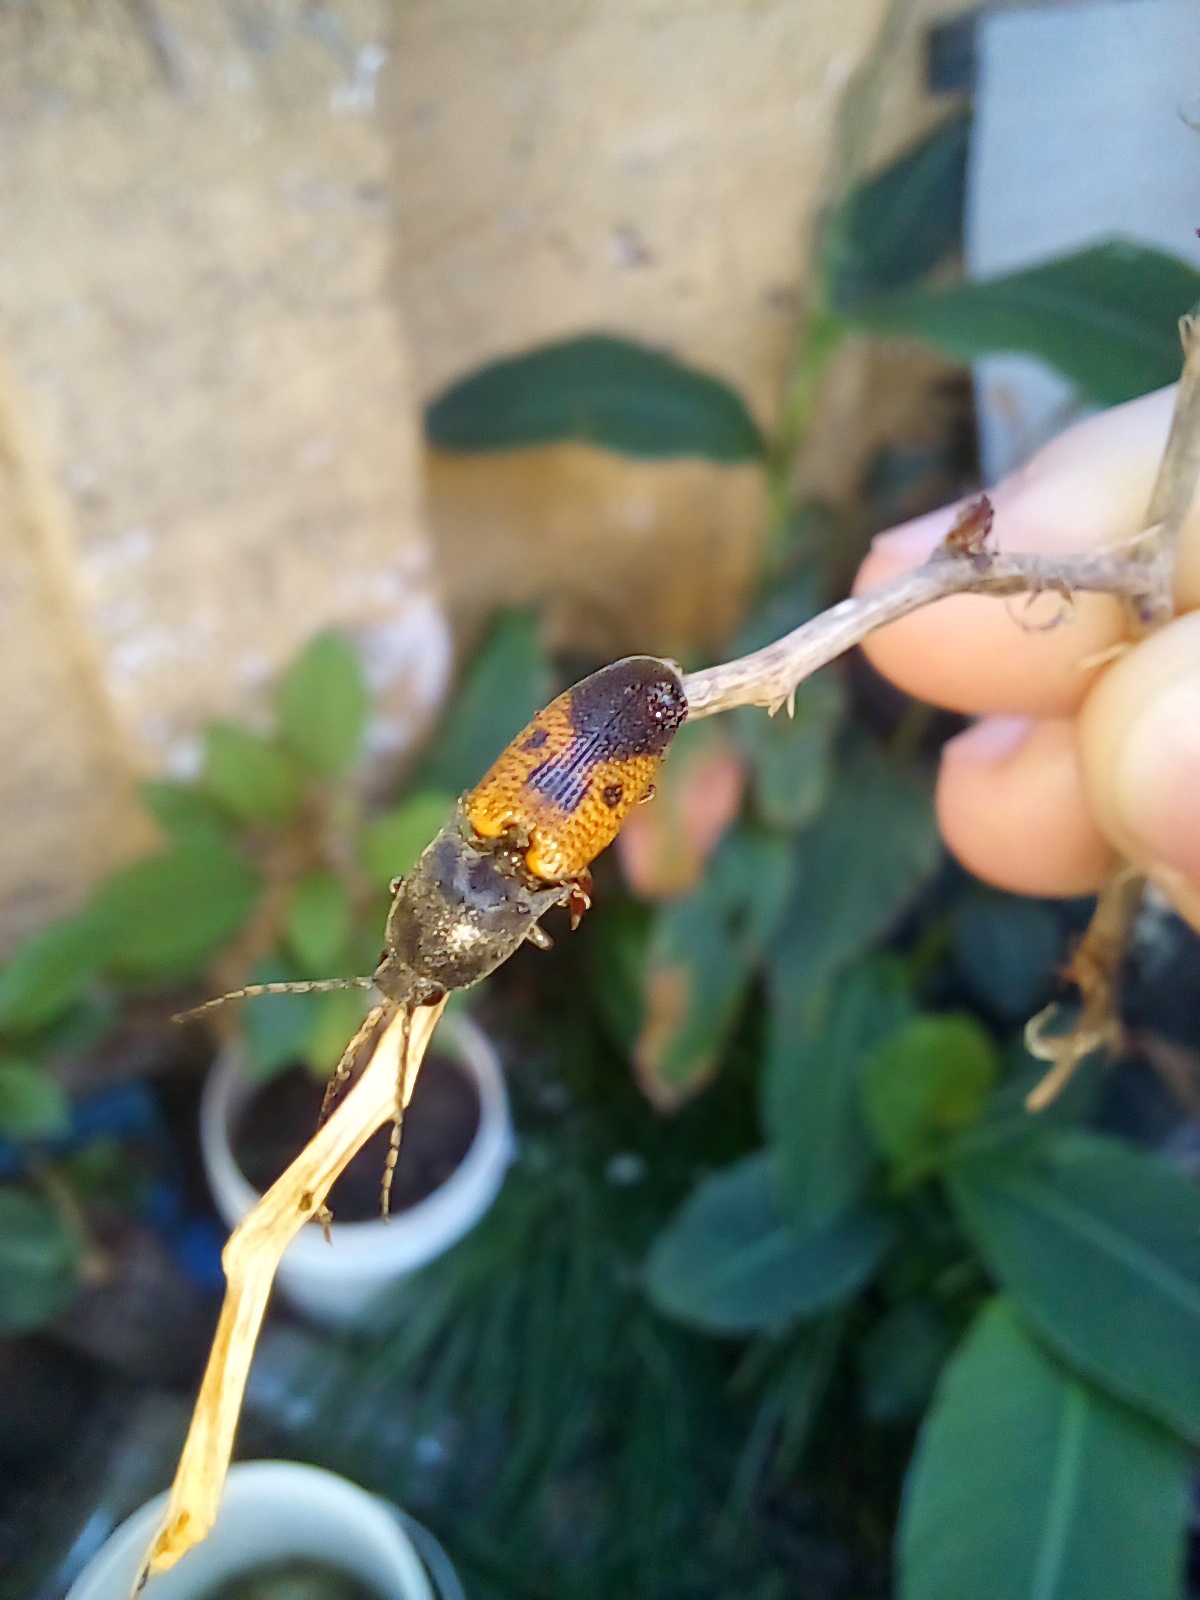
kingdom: Animalia
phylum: Arthropoda
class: Insecta
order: Coleoptera
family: Elateridae
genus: Monocrepidius
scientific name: Monocrepidius
